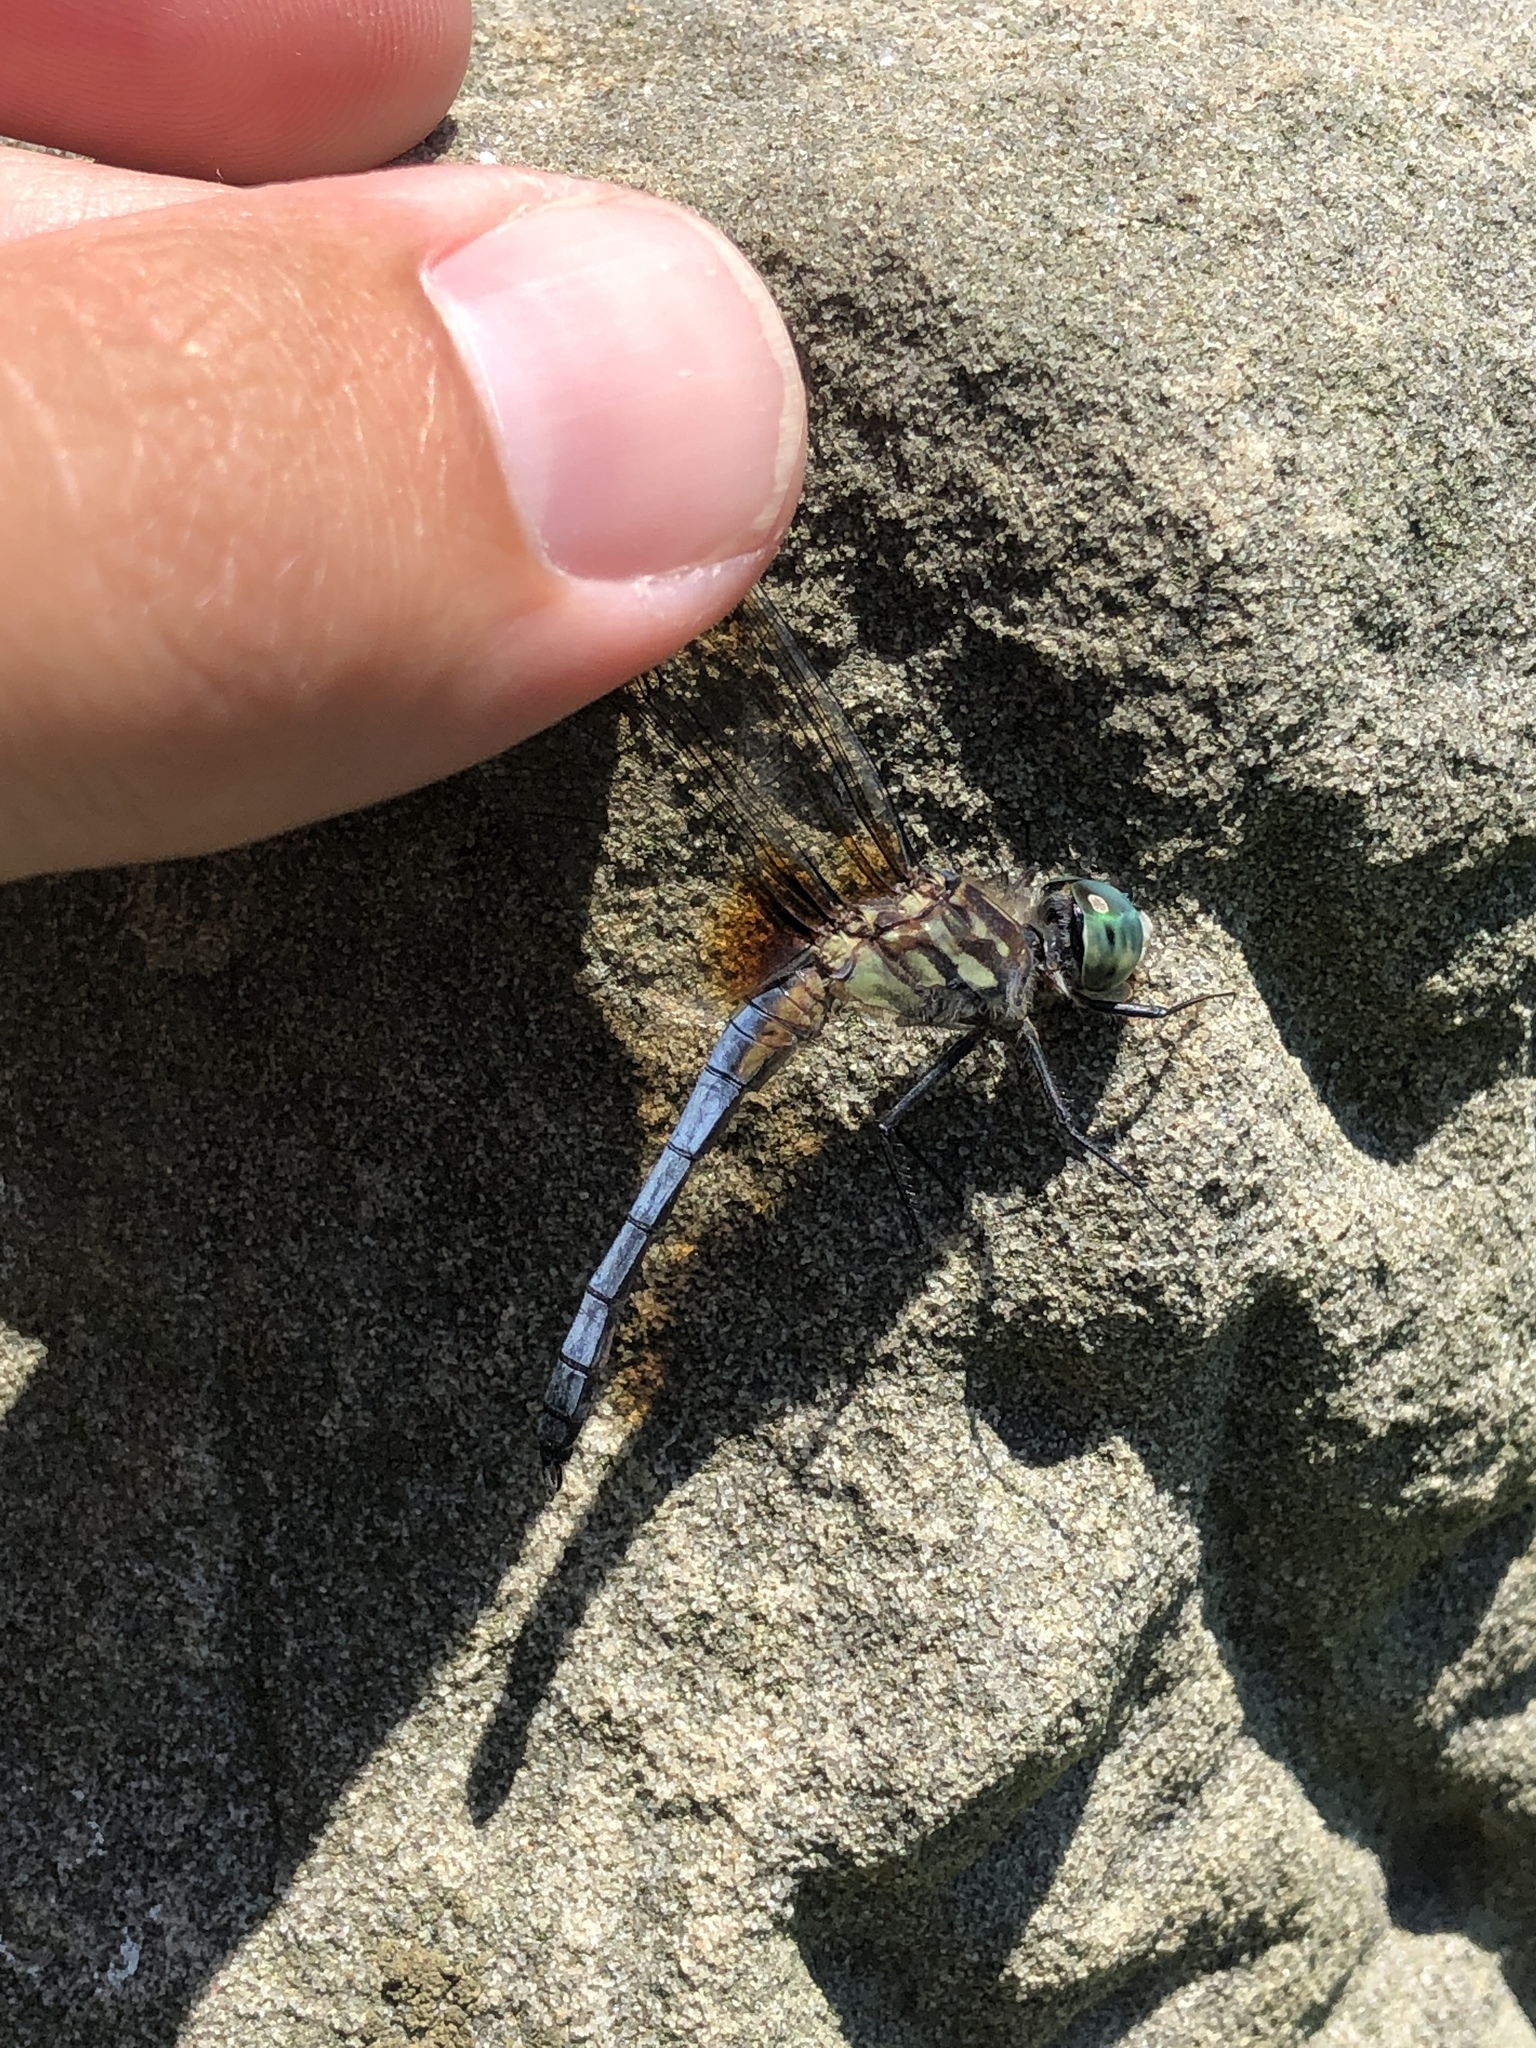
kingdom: Animalia
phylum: Arthropoda
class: Insecta
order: Odonata
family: Libellulidae
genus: Pachydiplax
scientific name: Pachydiplax longipennis
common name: Blue dasher
